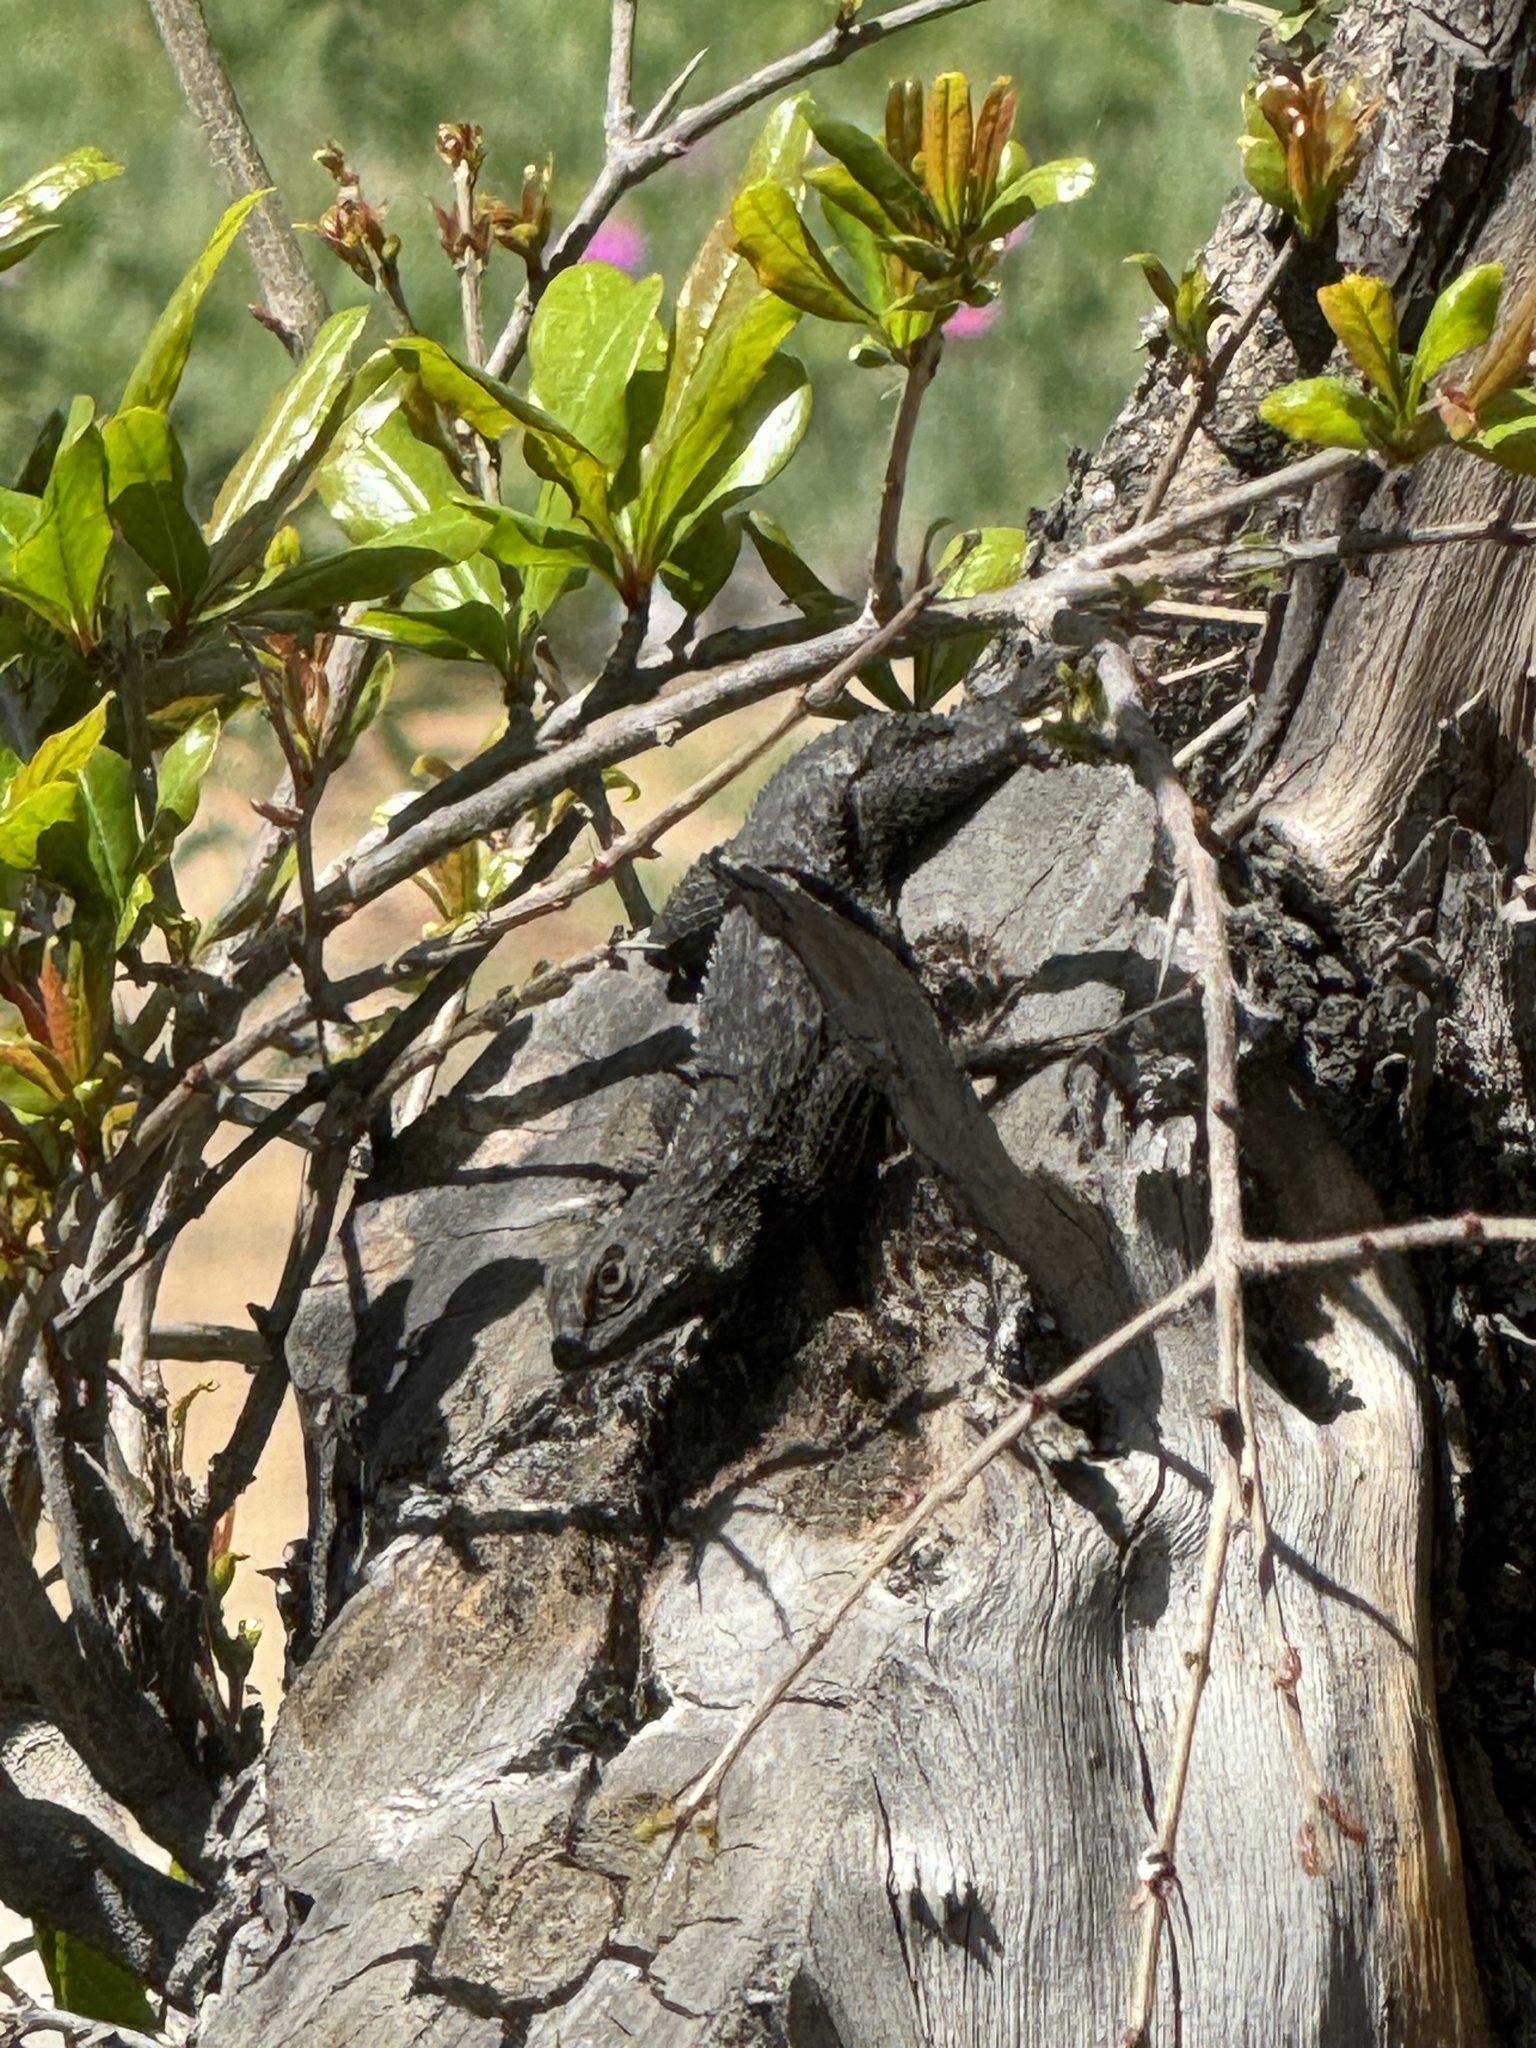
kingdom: Animalia
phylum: Chordata
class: Squamata
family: Phrynosomatidae
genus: Sceloporus
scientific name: Sceloporus occidentalis
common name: Western fence lizard
